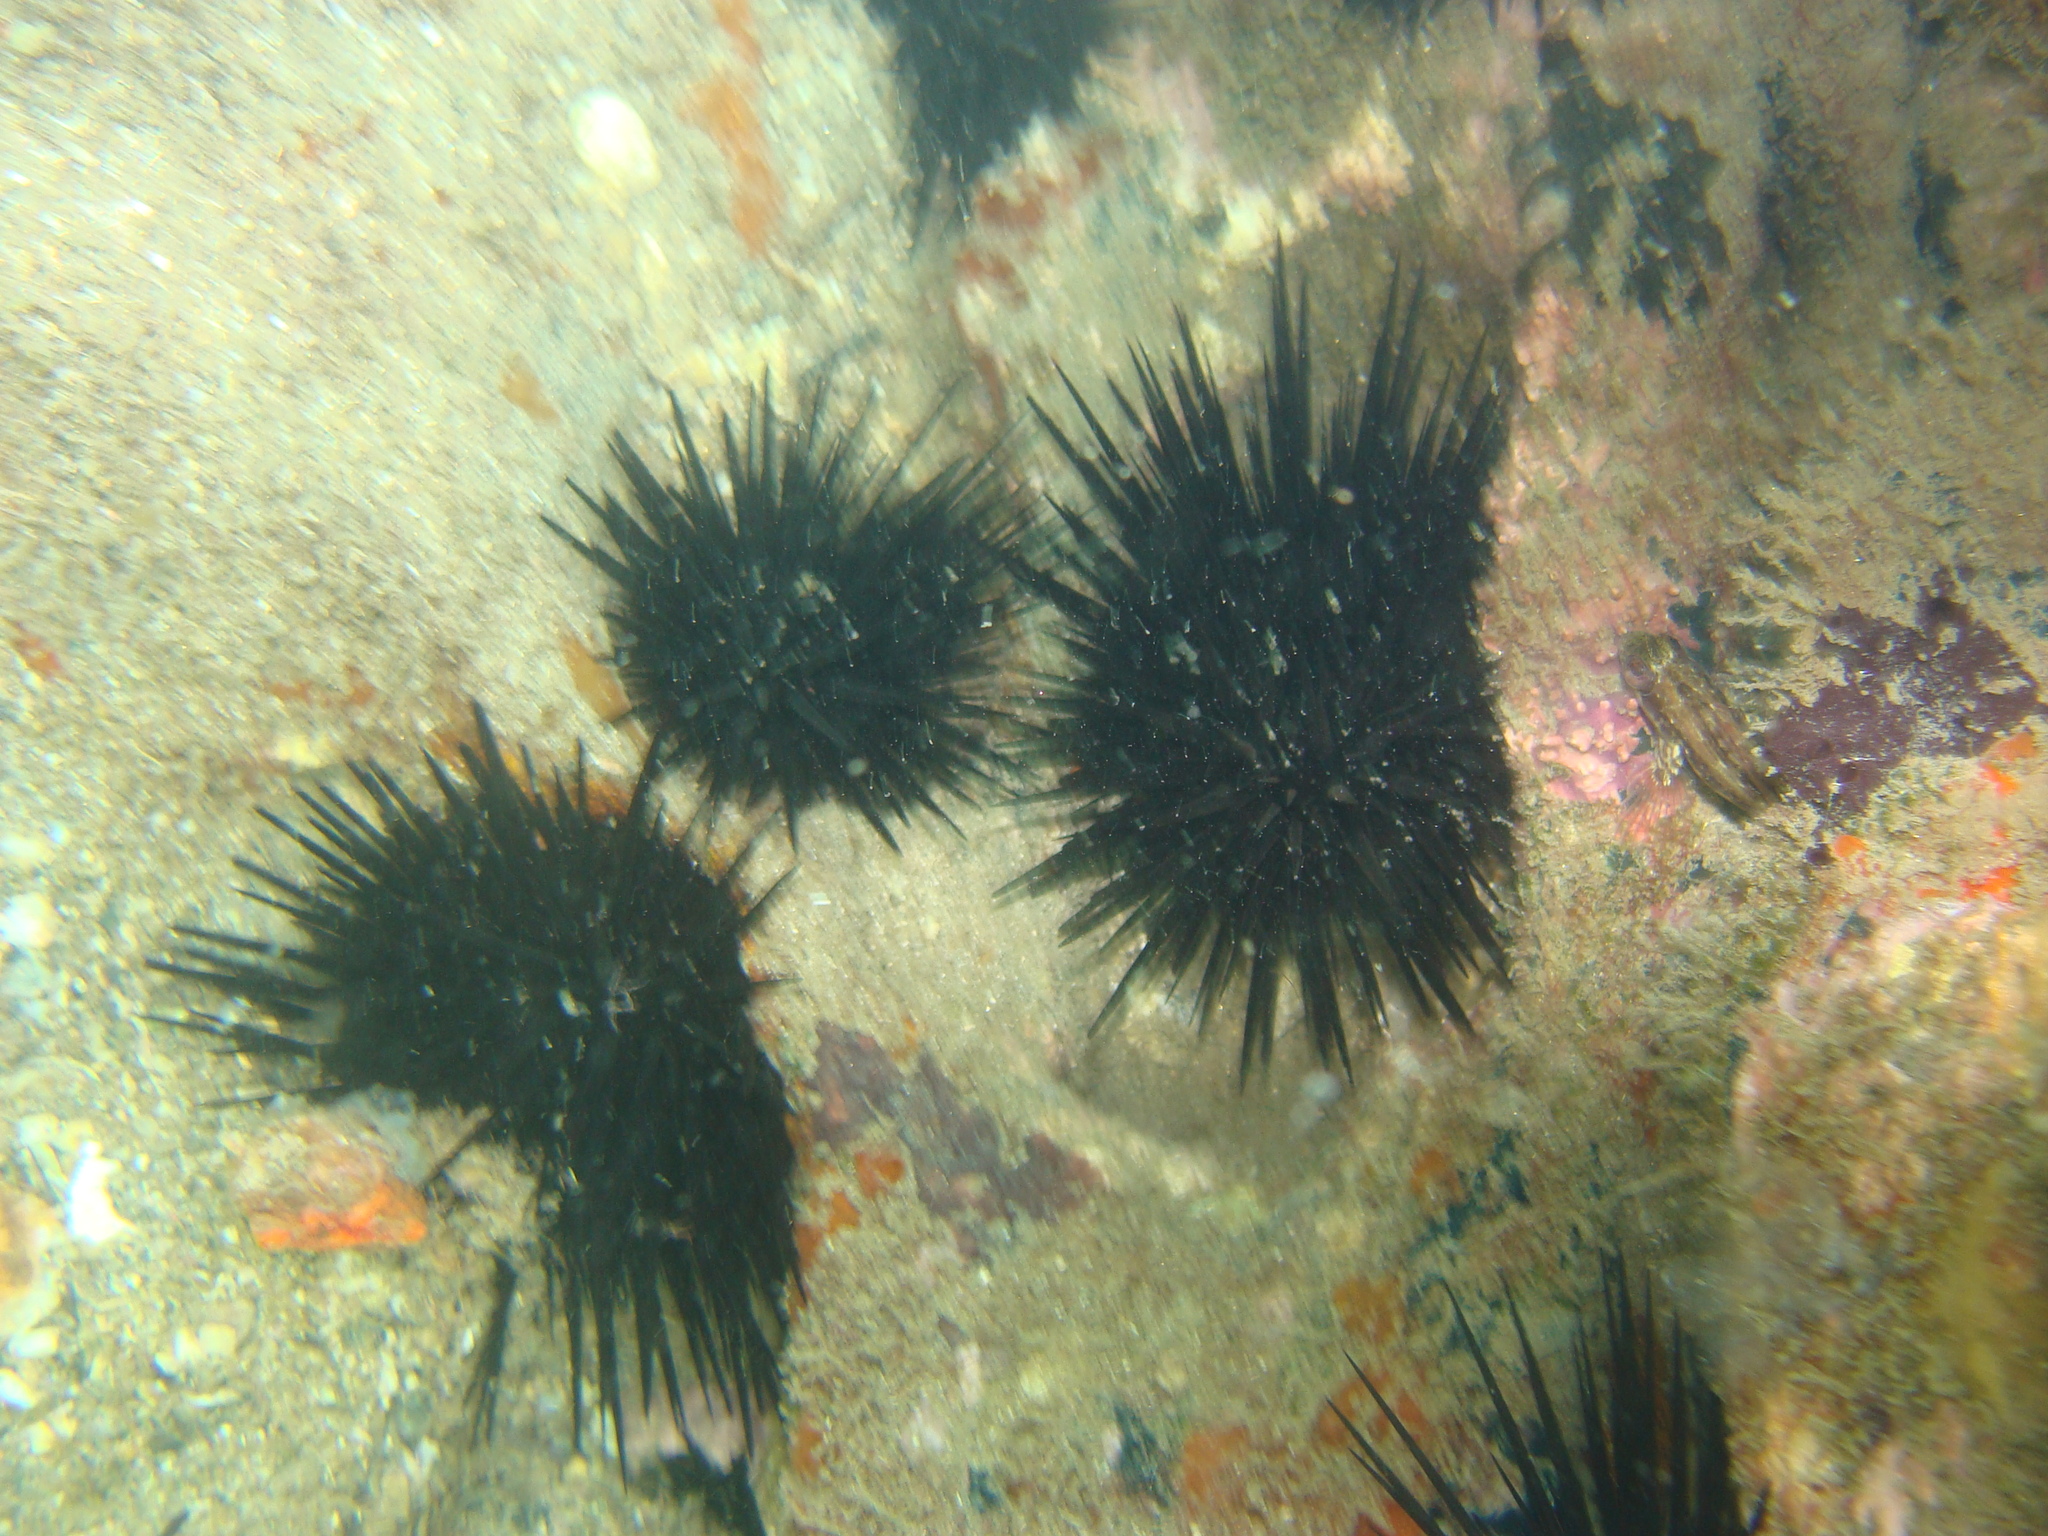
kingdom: Animalia
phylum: Echinodermata
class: Echinoidea
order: Camarodonta
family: Echinometridae
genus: Echinometra
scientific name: Echinometra lucunter
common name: Rock urchin
